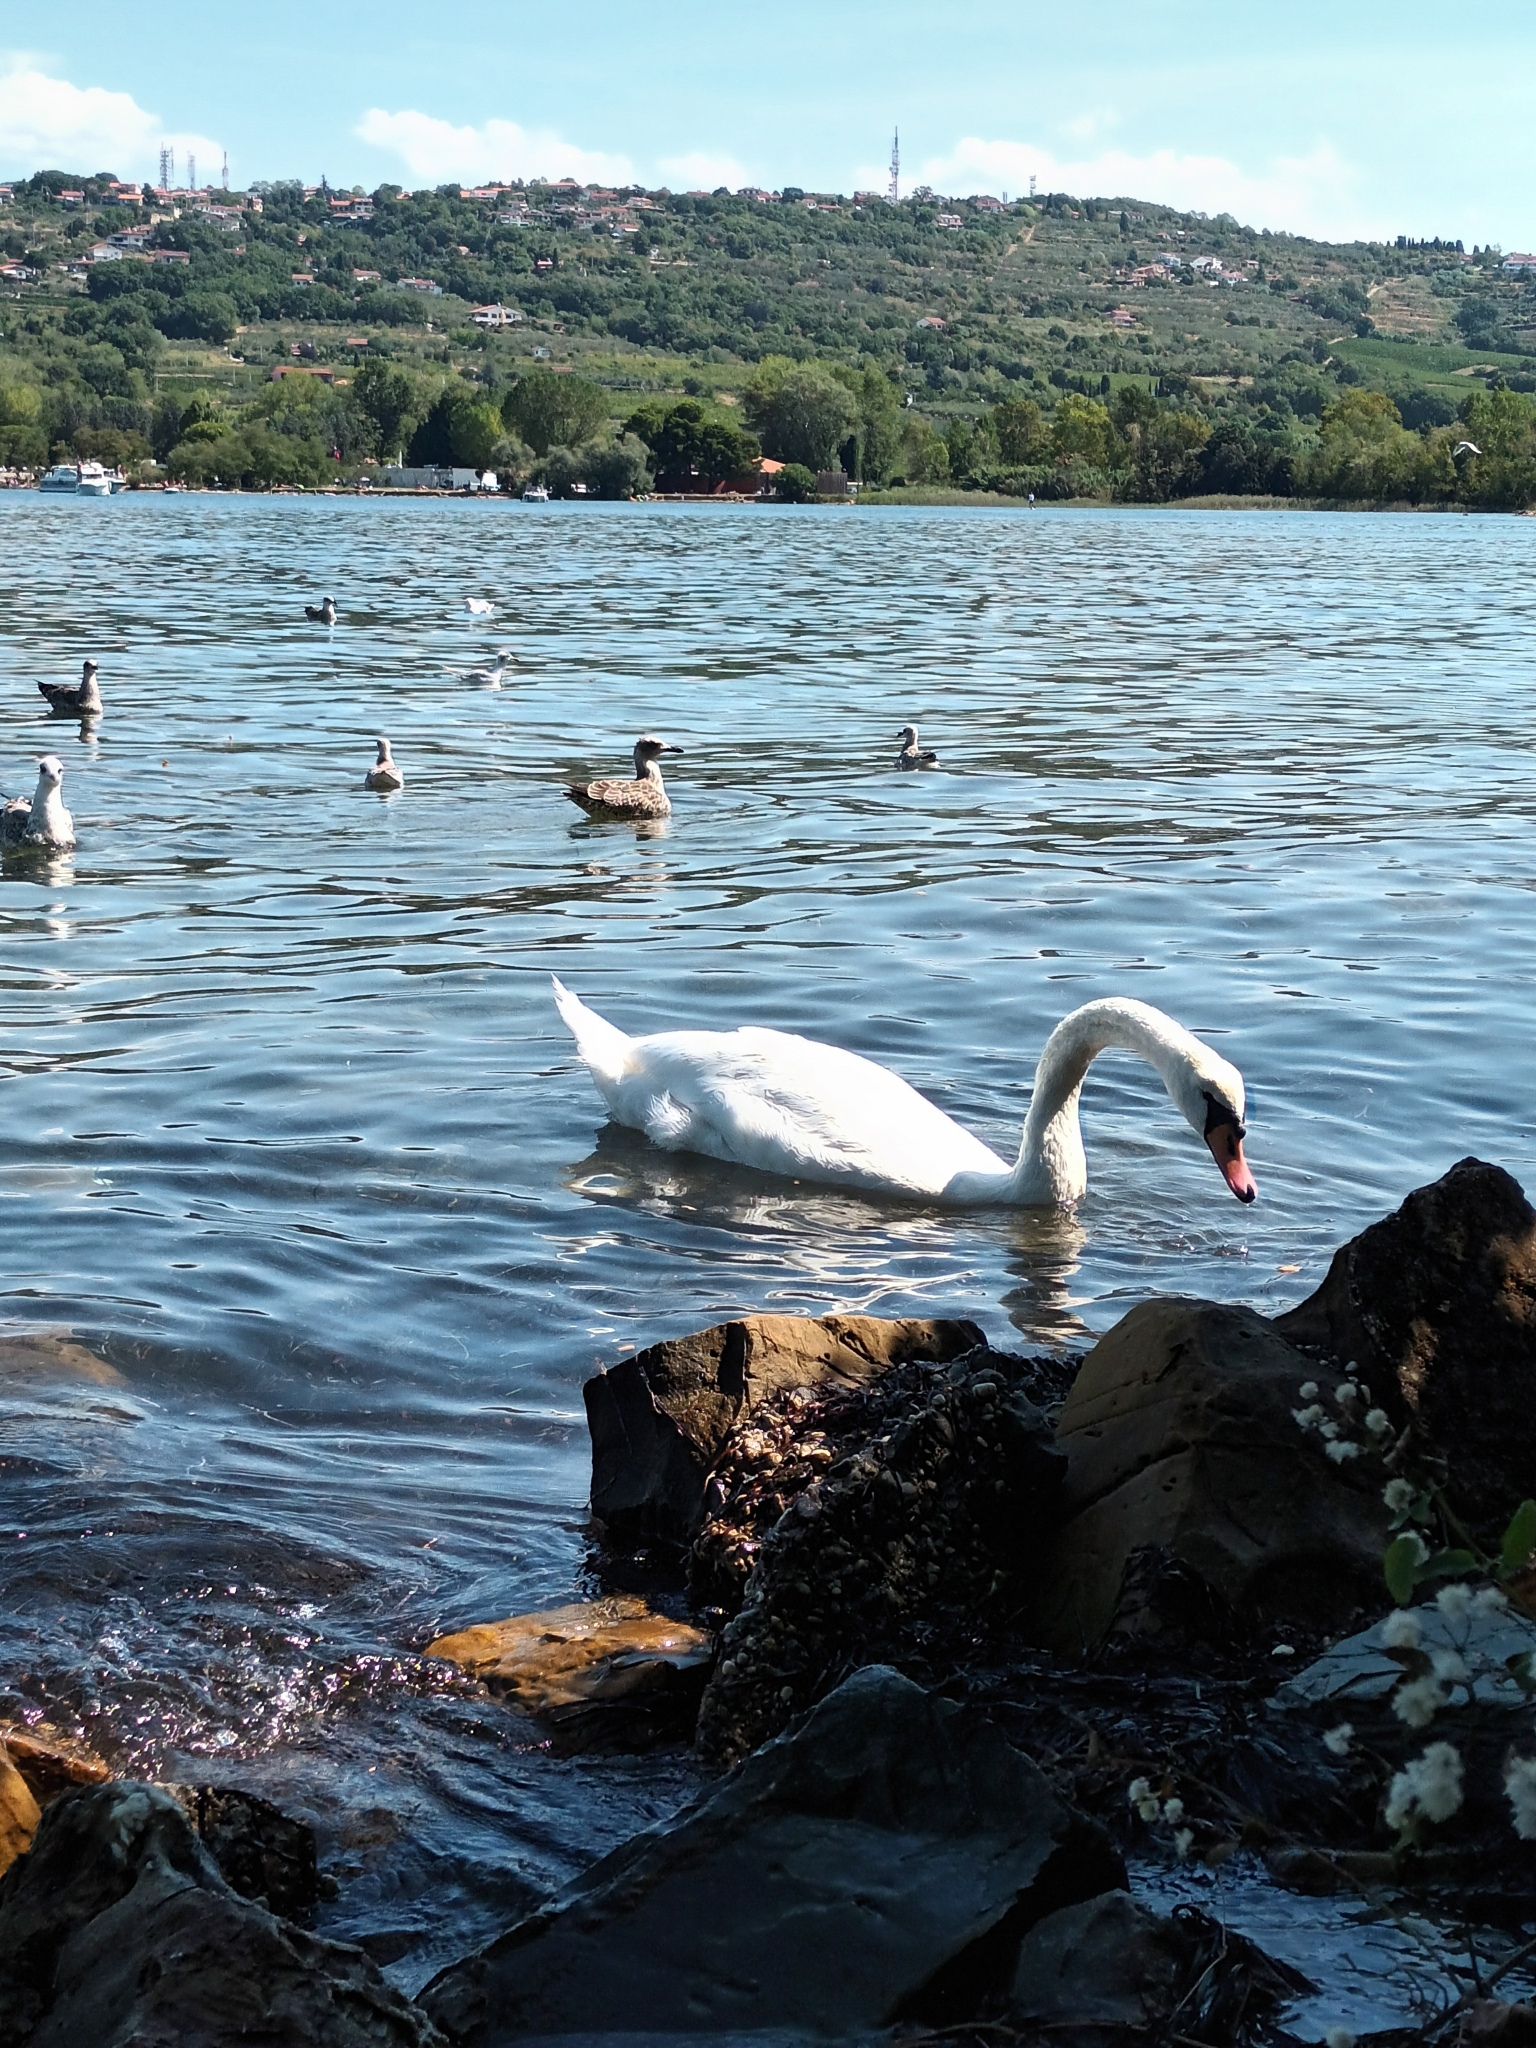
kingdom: Animalia
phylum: Chordata
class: Aves
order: Anseriformes
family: Anatidae
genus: Cygnus
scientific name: Cygnus olor
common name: Mute swan
